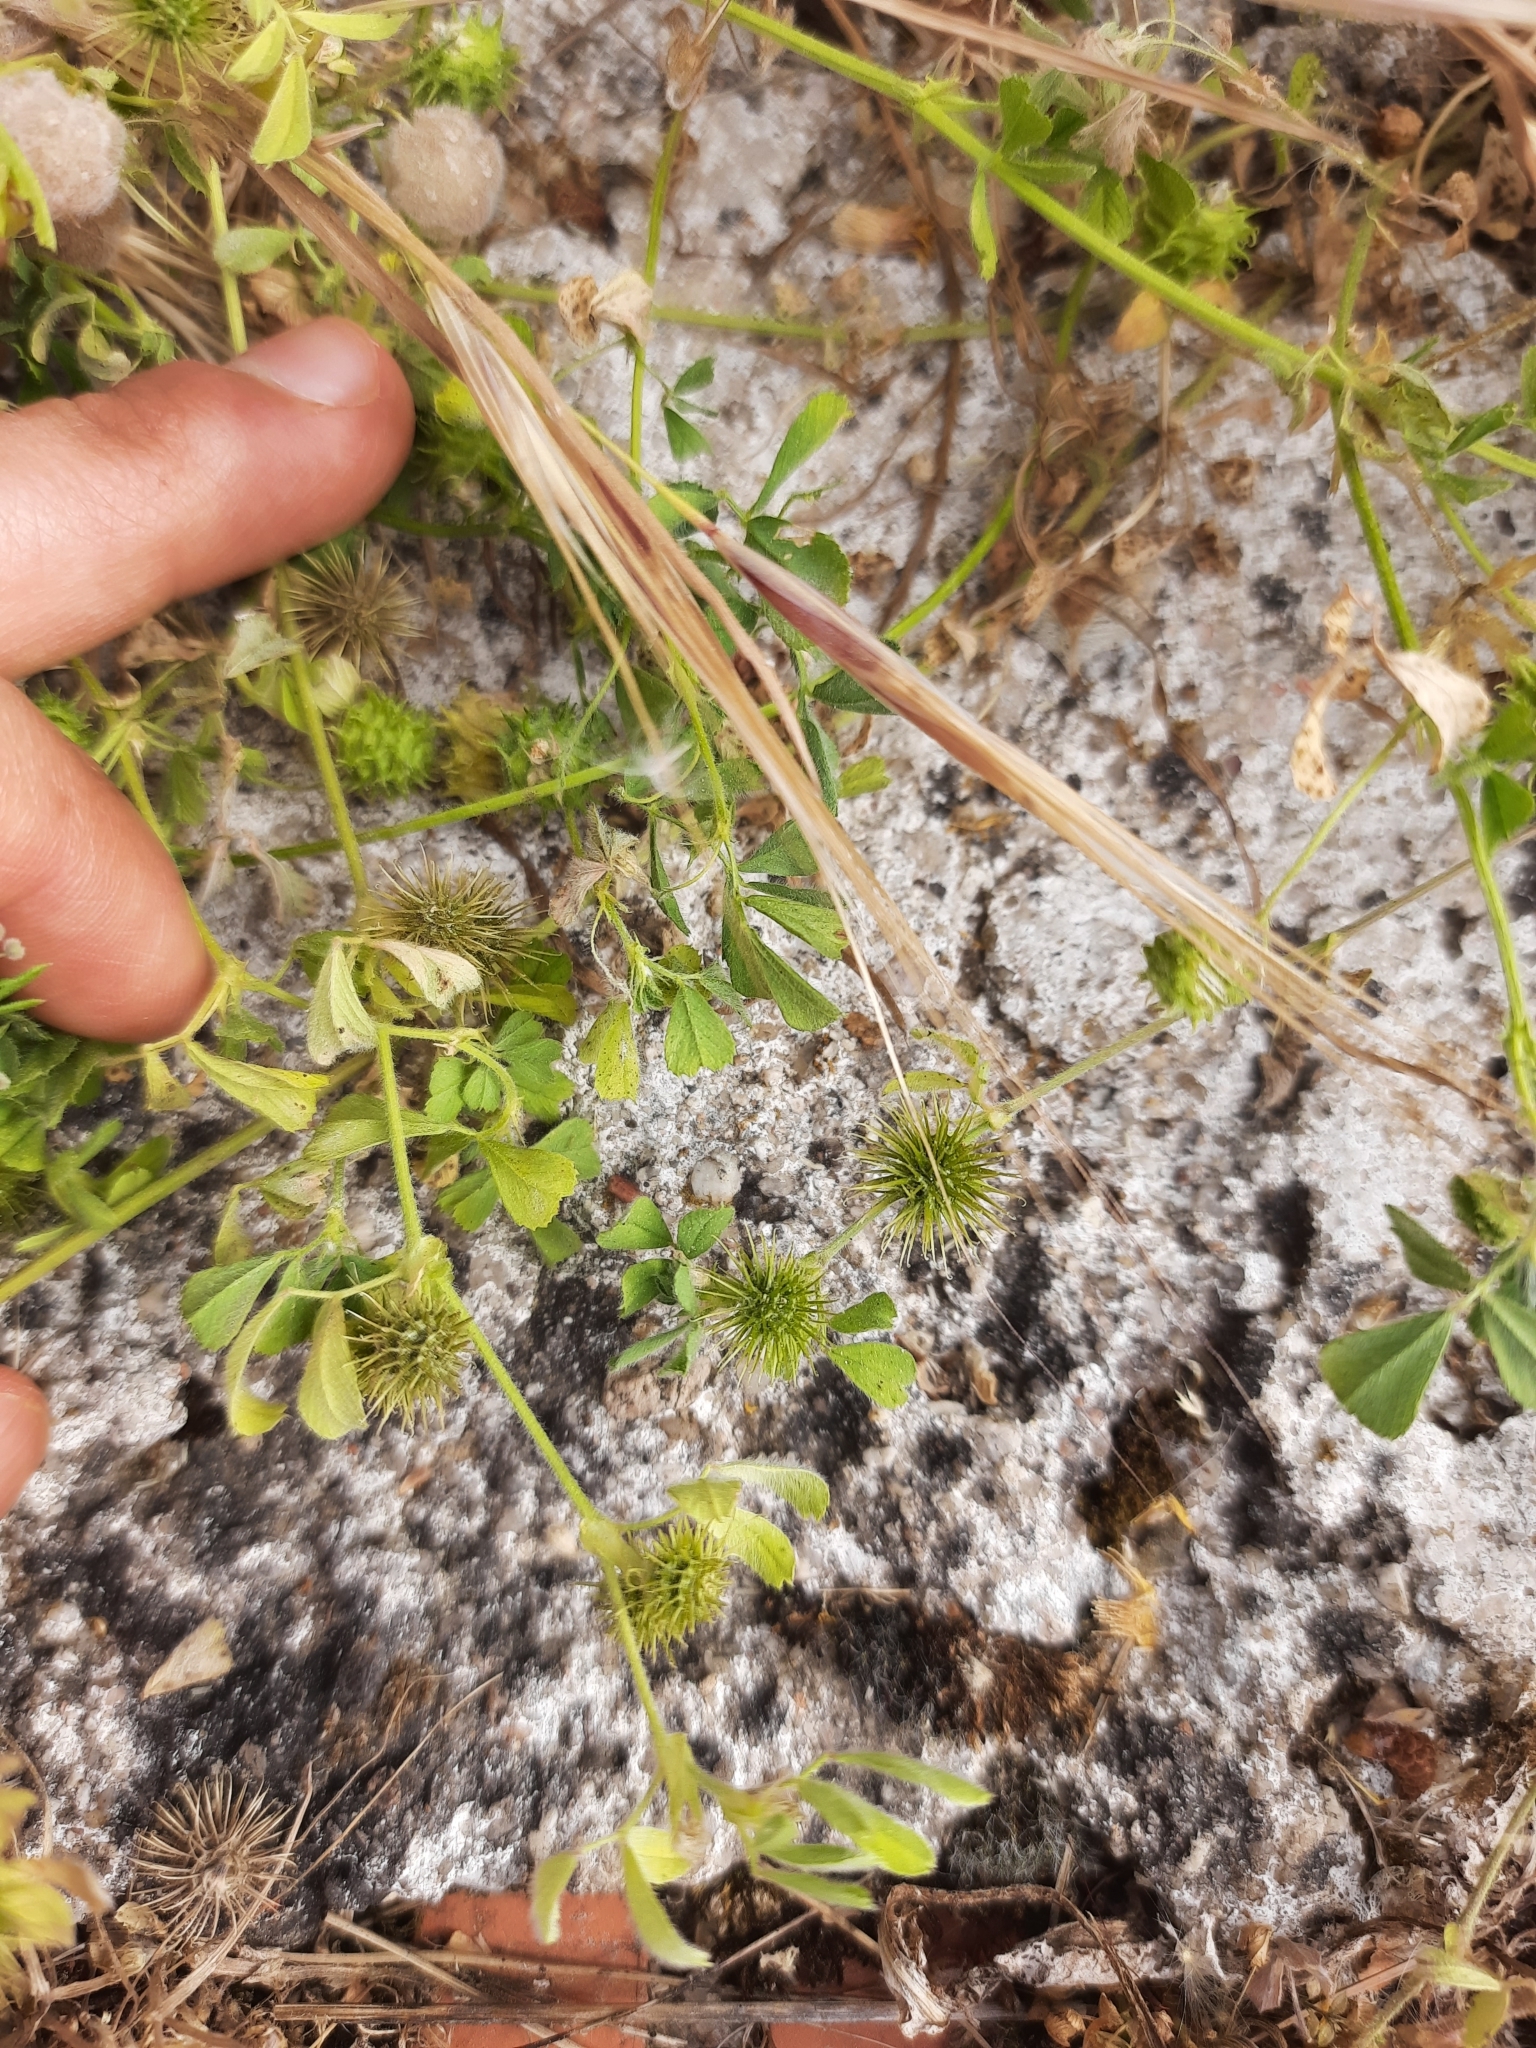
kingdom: Plantae
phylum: Tracheophyta
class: Magnoliopsida
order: Fabales
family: Fabaceae
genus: Medicago
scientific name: Medicago minima
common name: Little bur-clover
